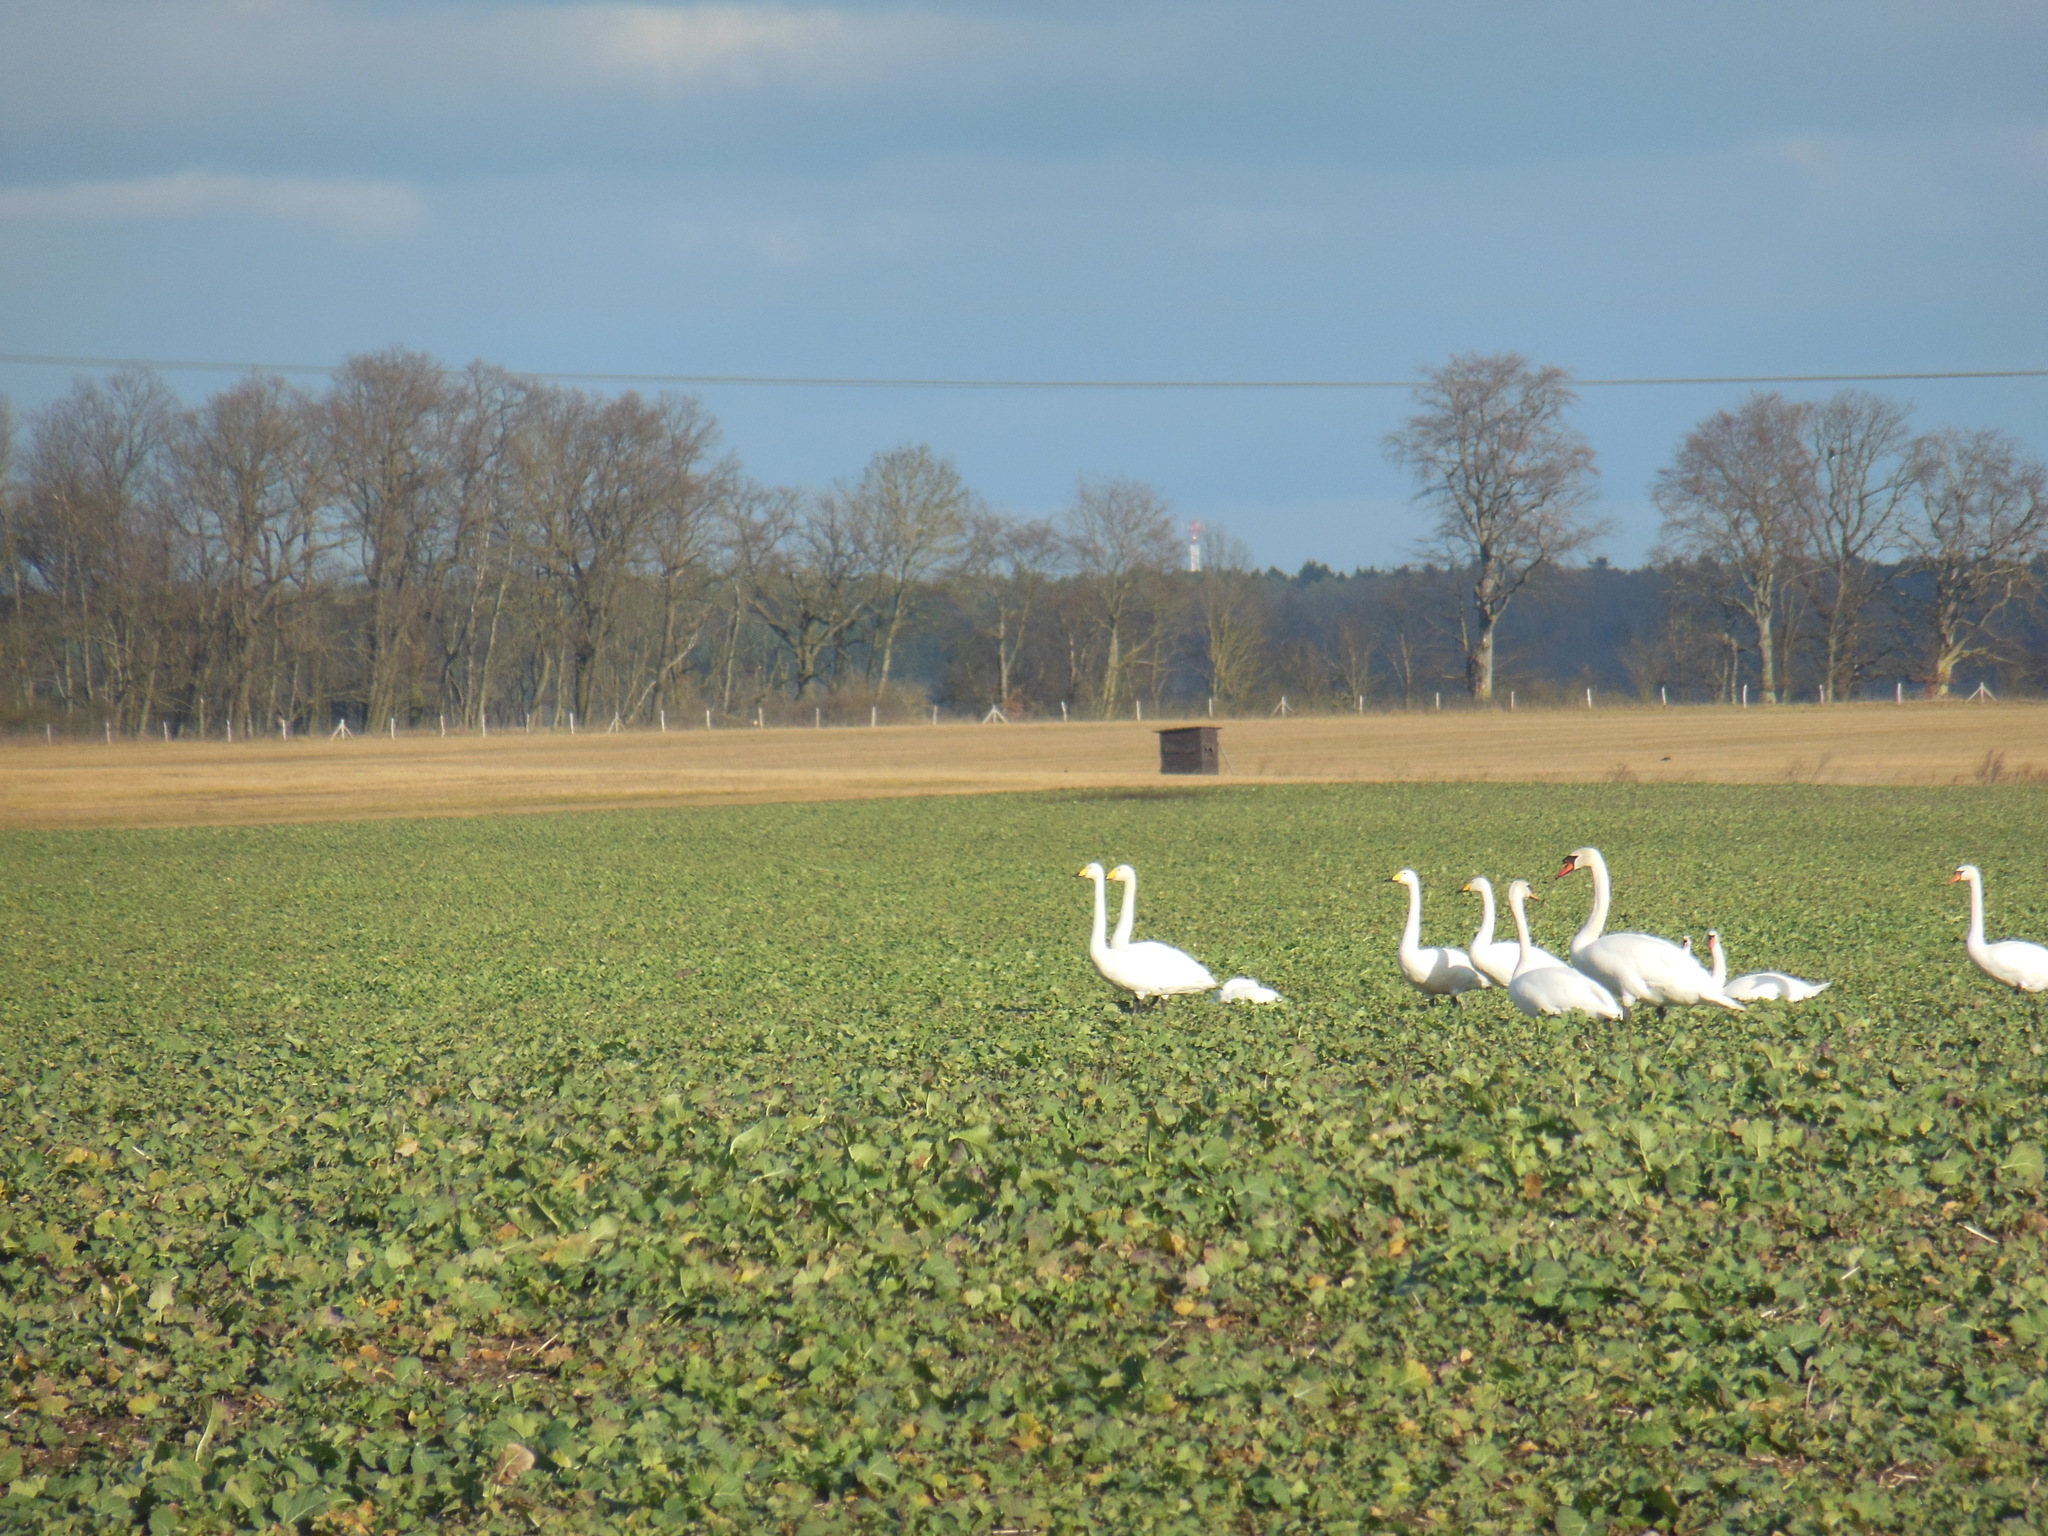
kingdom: Animalia
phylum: Chordata
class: Aves
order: Anseriformes
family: Anatidae
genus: Cygnus
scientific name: Cygnus cygnus
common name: Whooper swan
